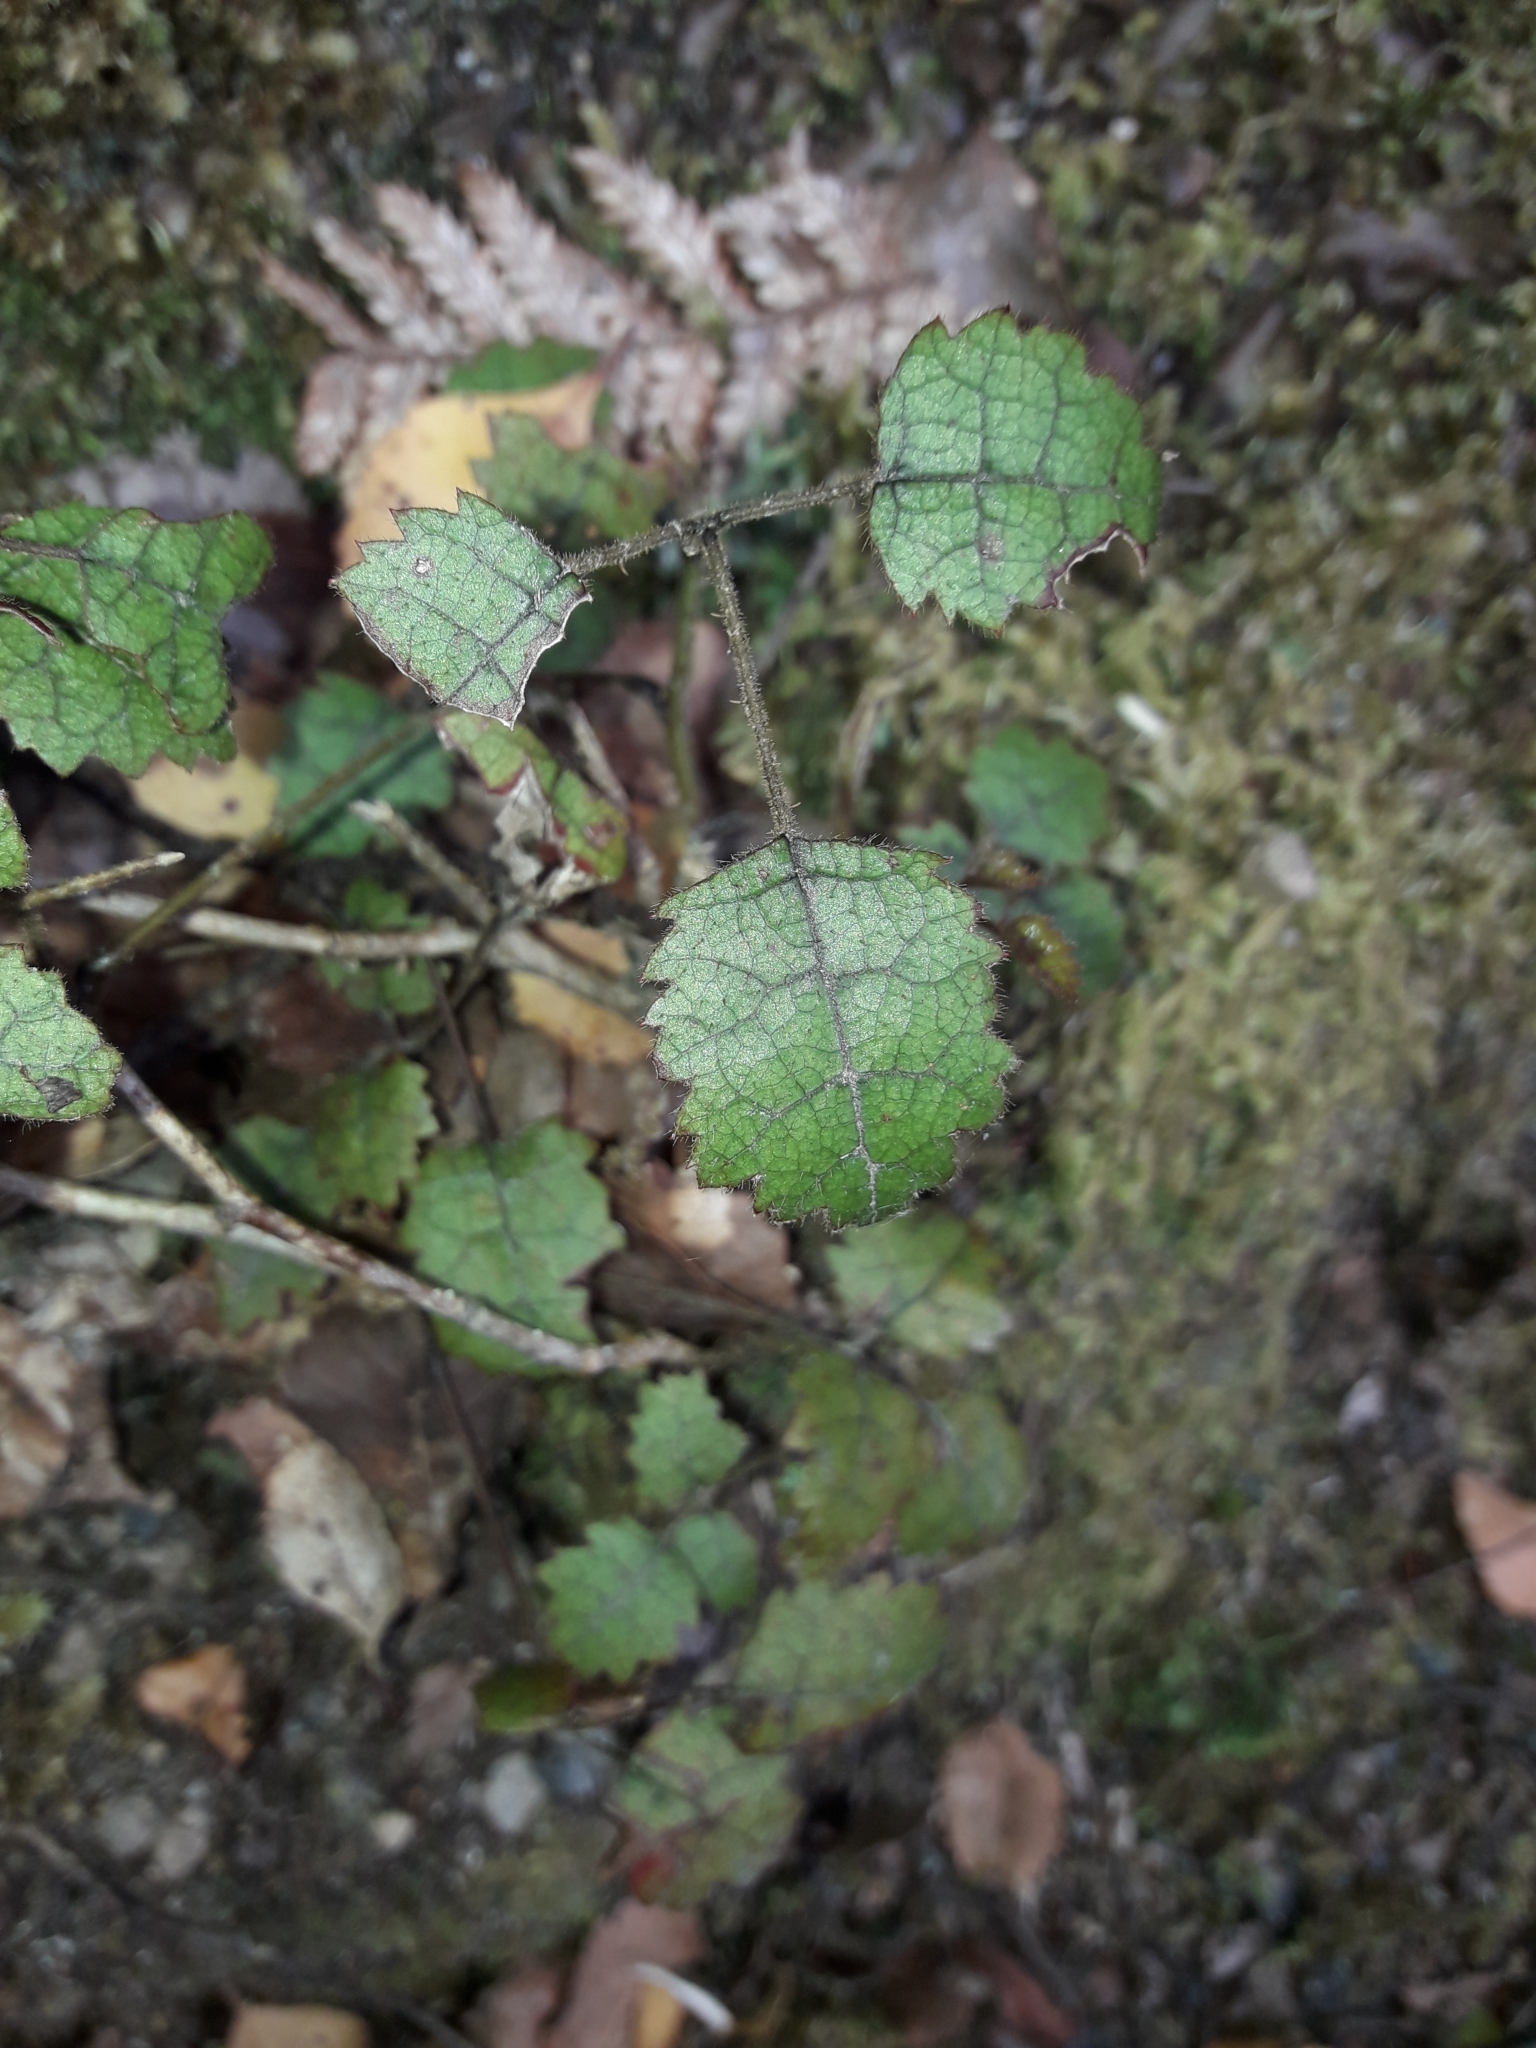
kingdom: Plantae
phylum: Tracheophyta
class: Magnoliopsida
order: Rosales
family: Rosaceae
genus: Rubus
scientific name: Rubus australis
